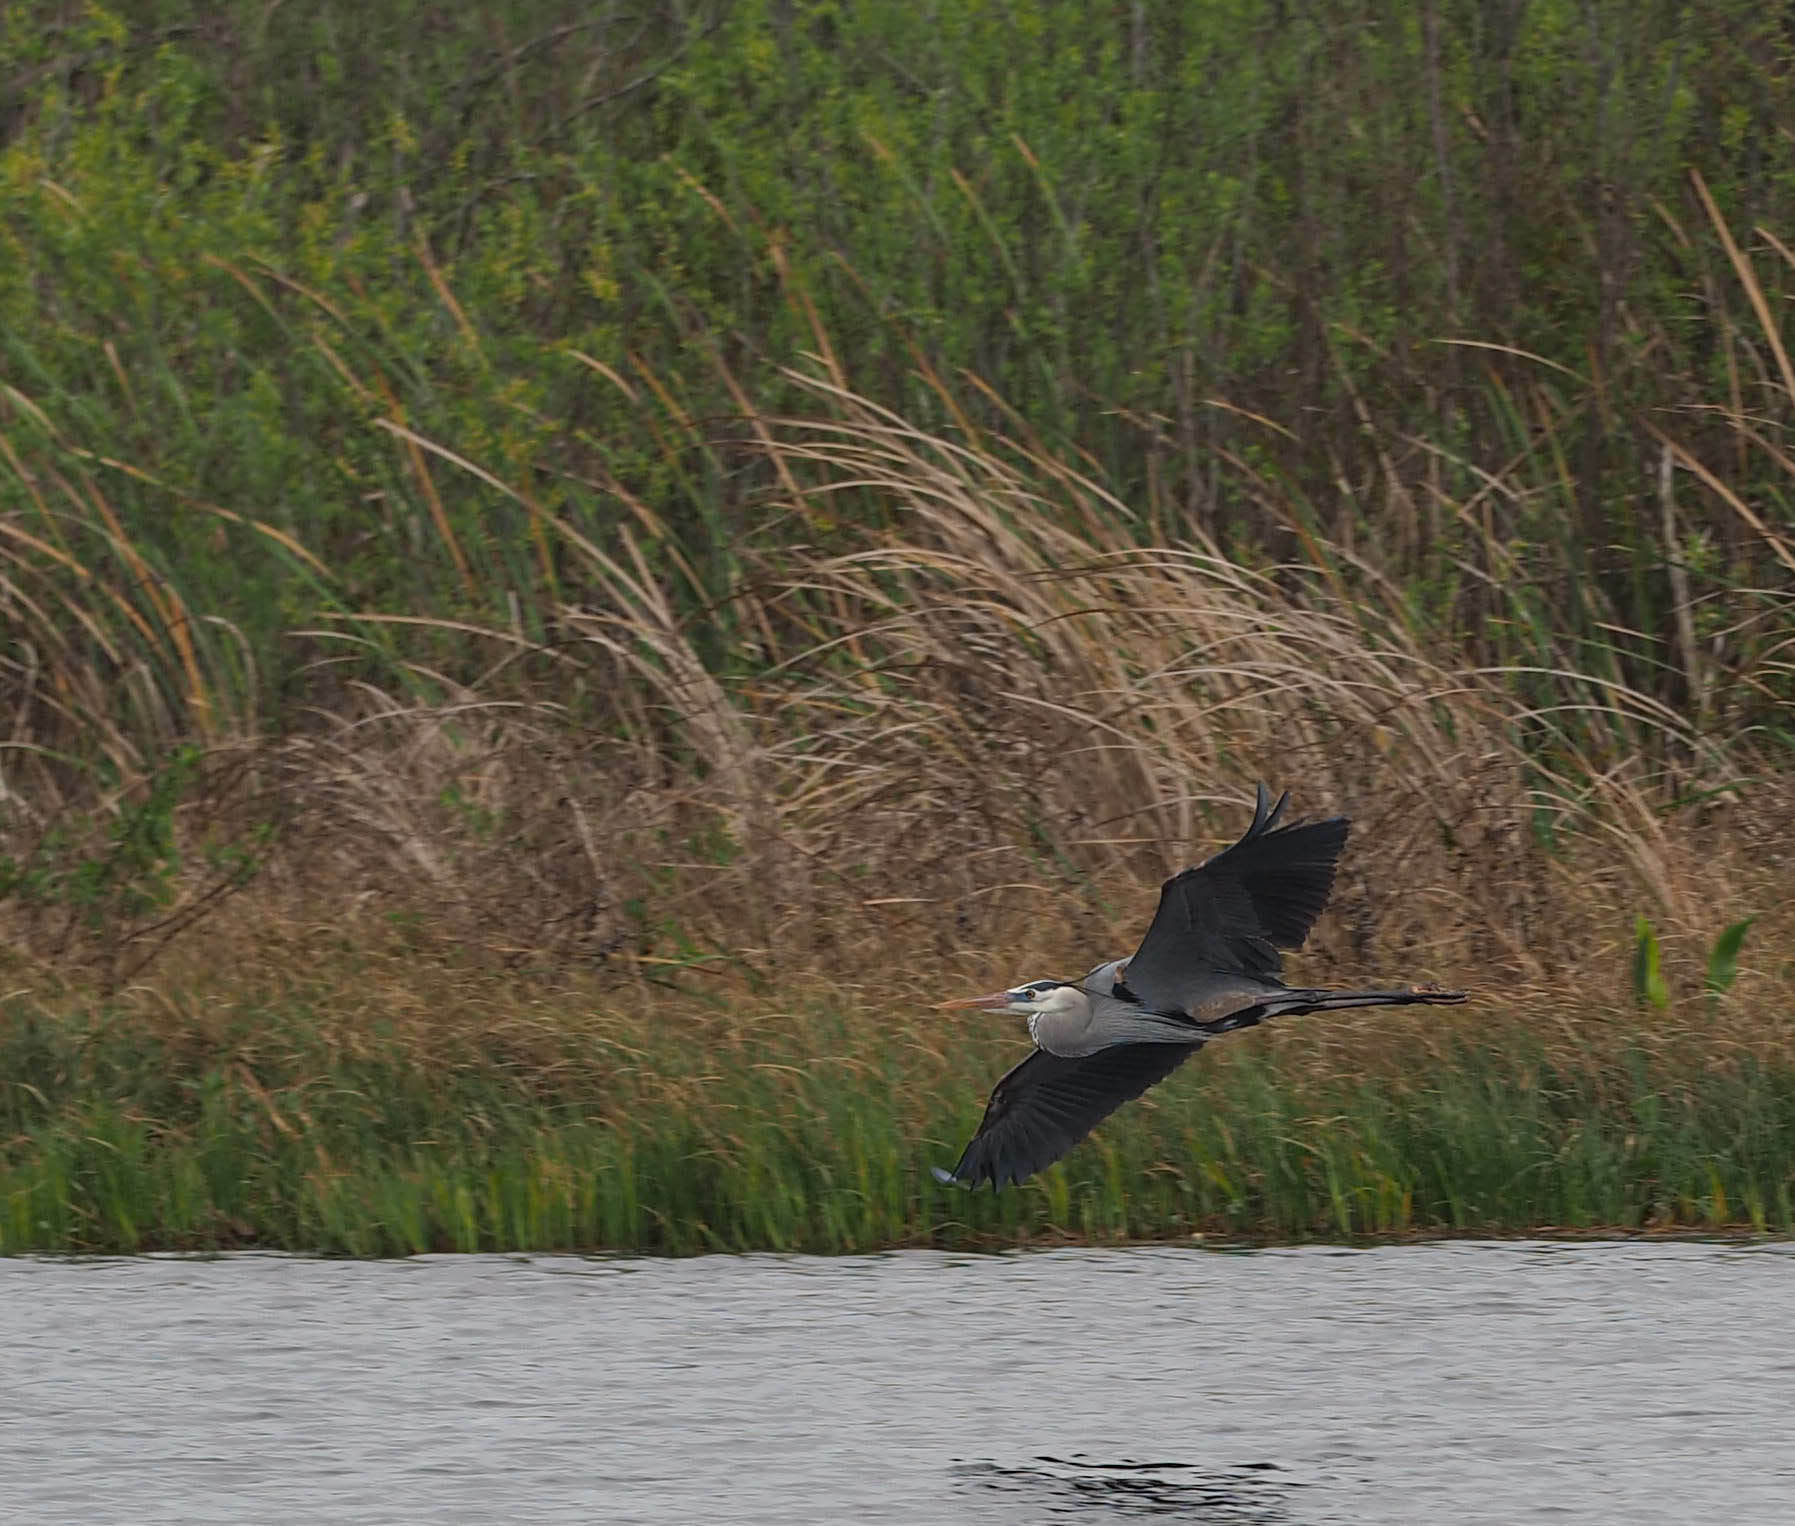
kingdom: Animalia
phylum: Chordata
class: Aves
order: Pelecaniformes
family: Ardeidae
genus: Ardea
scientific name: Ardea herodias
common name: Great blue heron
